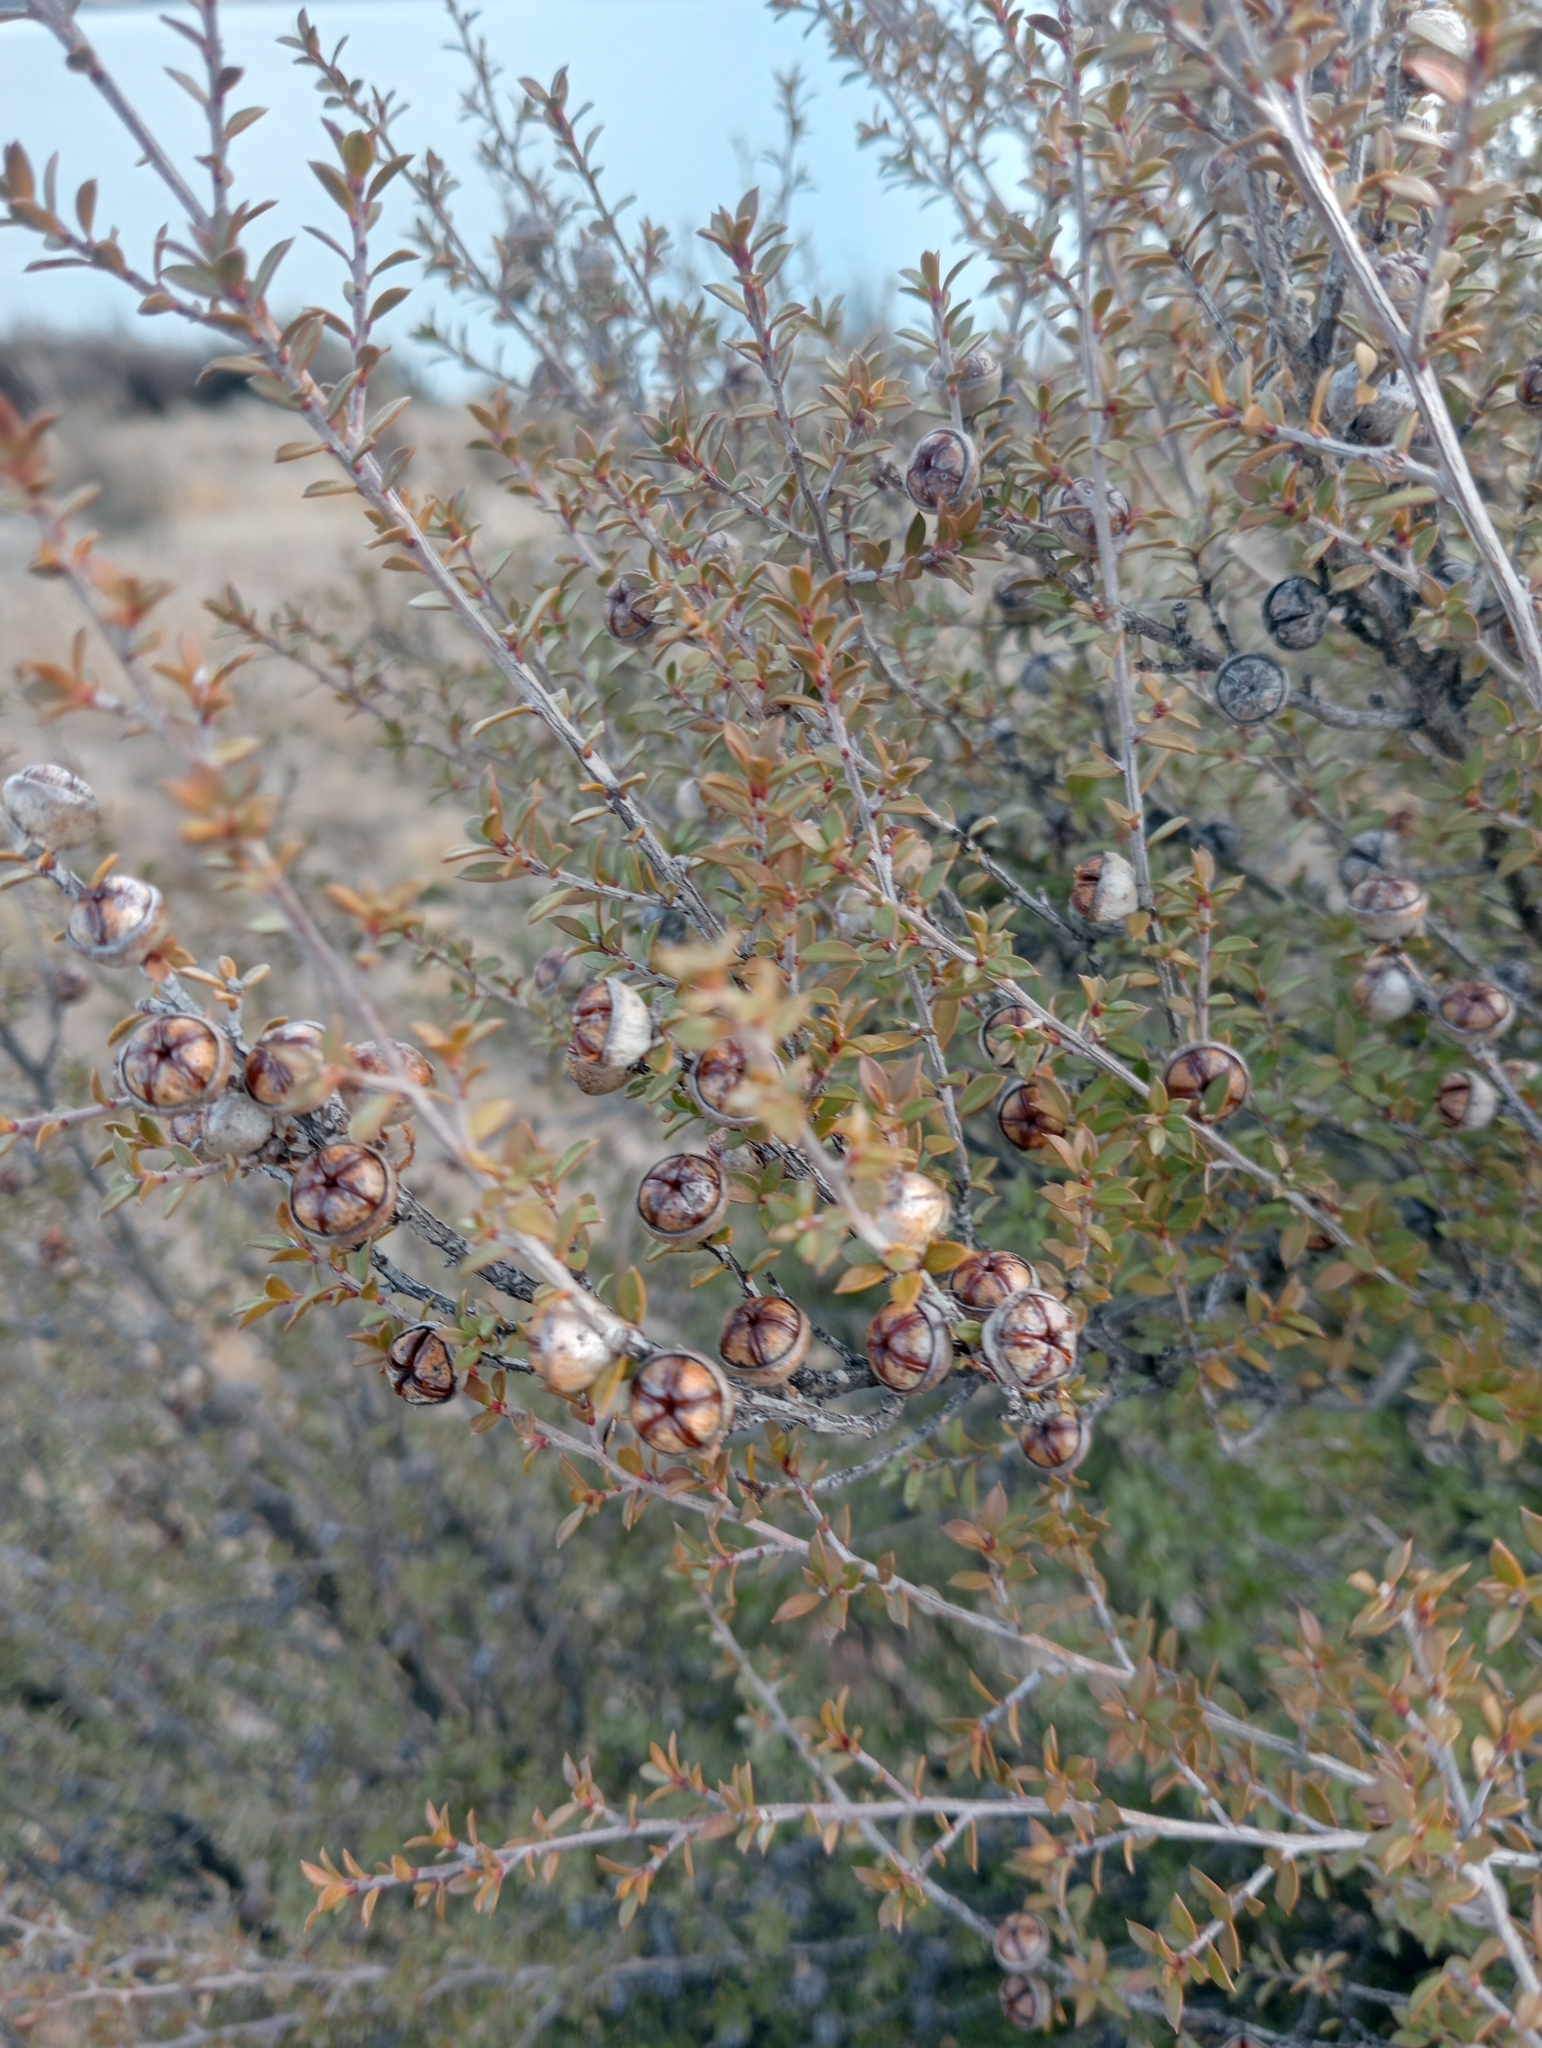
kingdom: Plantae
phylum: Tracheophyta
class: Magnoliopsida
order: Myrtales
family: Myrtaceae
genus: Leptospermum
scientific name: Leptospermum scoparium
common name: Broom tea-tree
